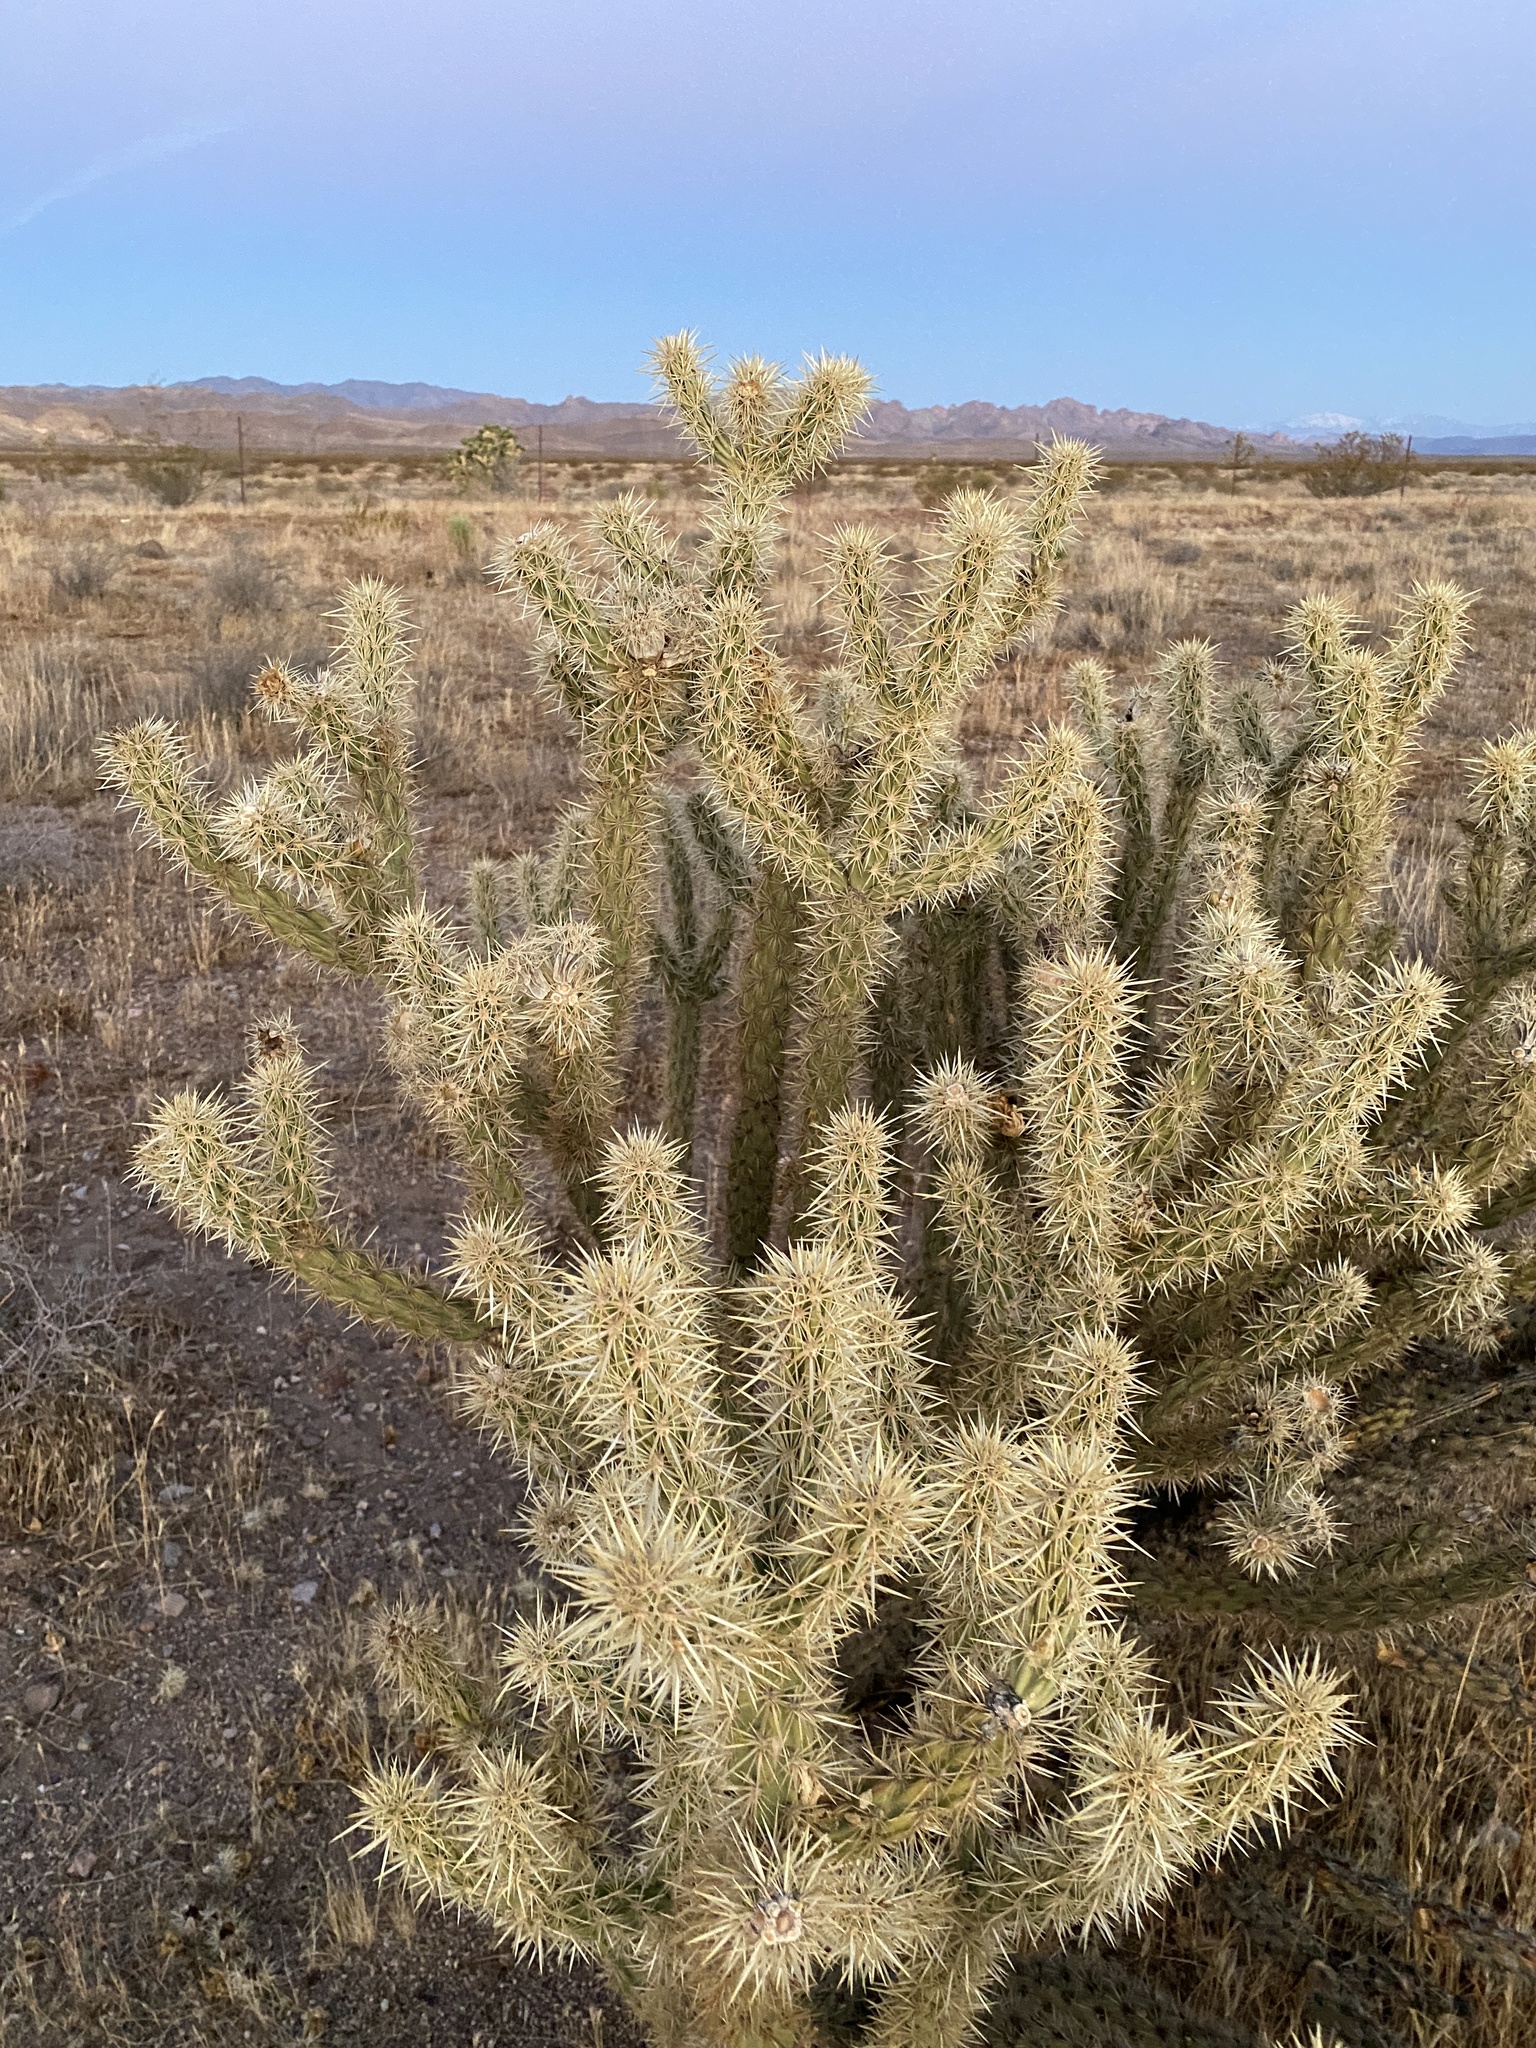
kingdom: Plantae
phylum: Tracheophyta
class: Magnoliopsida
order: Caryophyllales
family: Cactaceae
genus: Cylindropuntia
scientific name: Cylindropuntia acanthocarpa
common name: Buckhorn cholla
